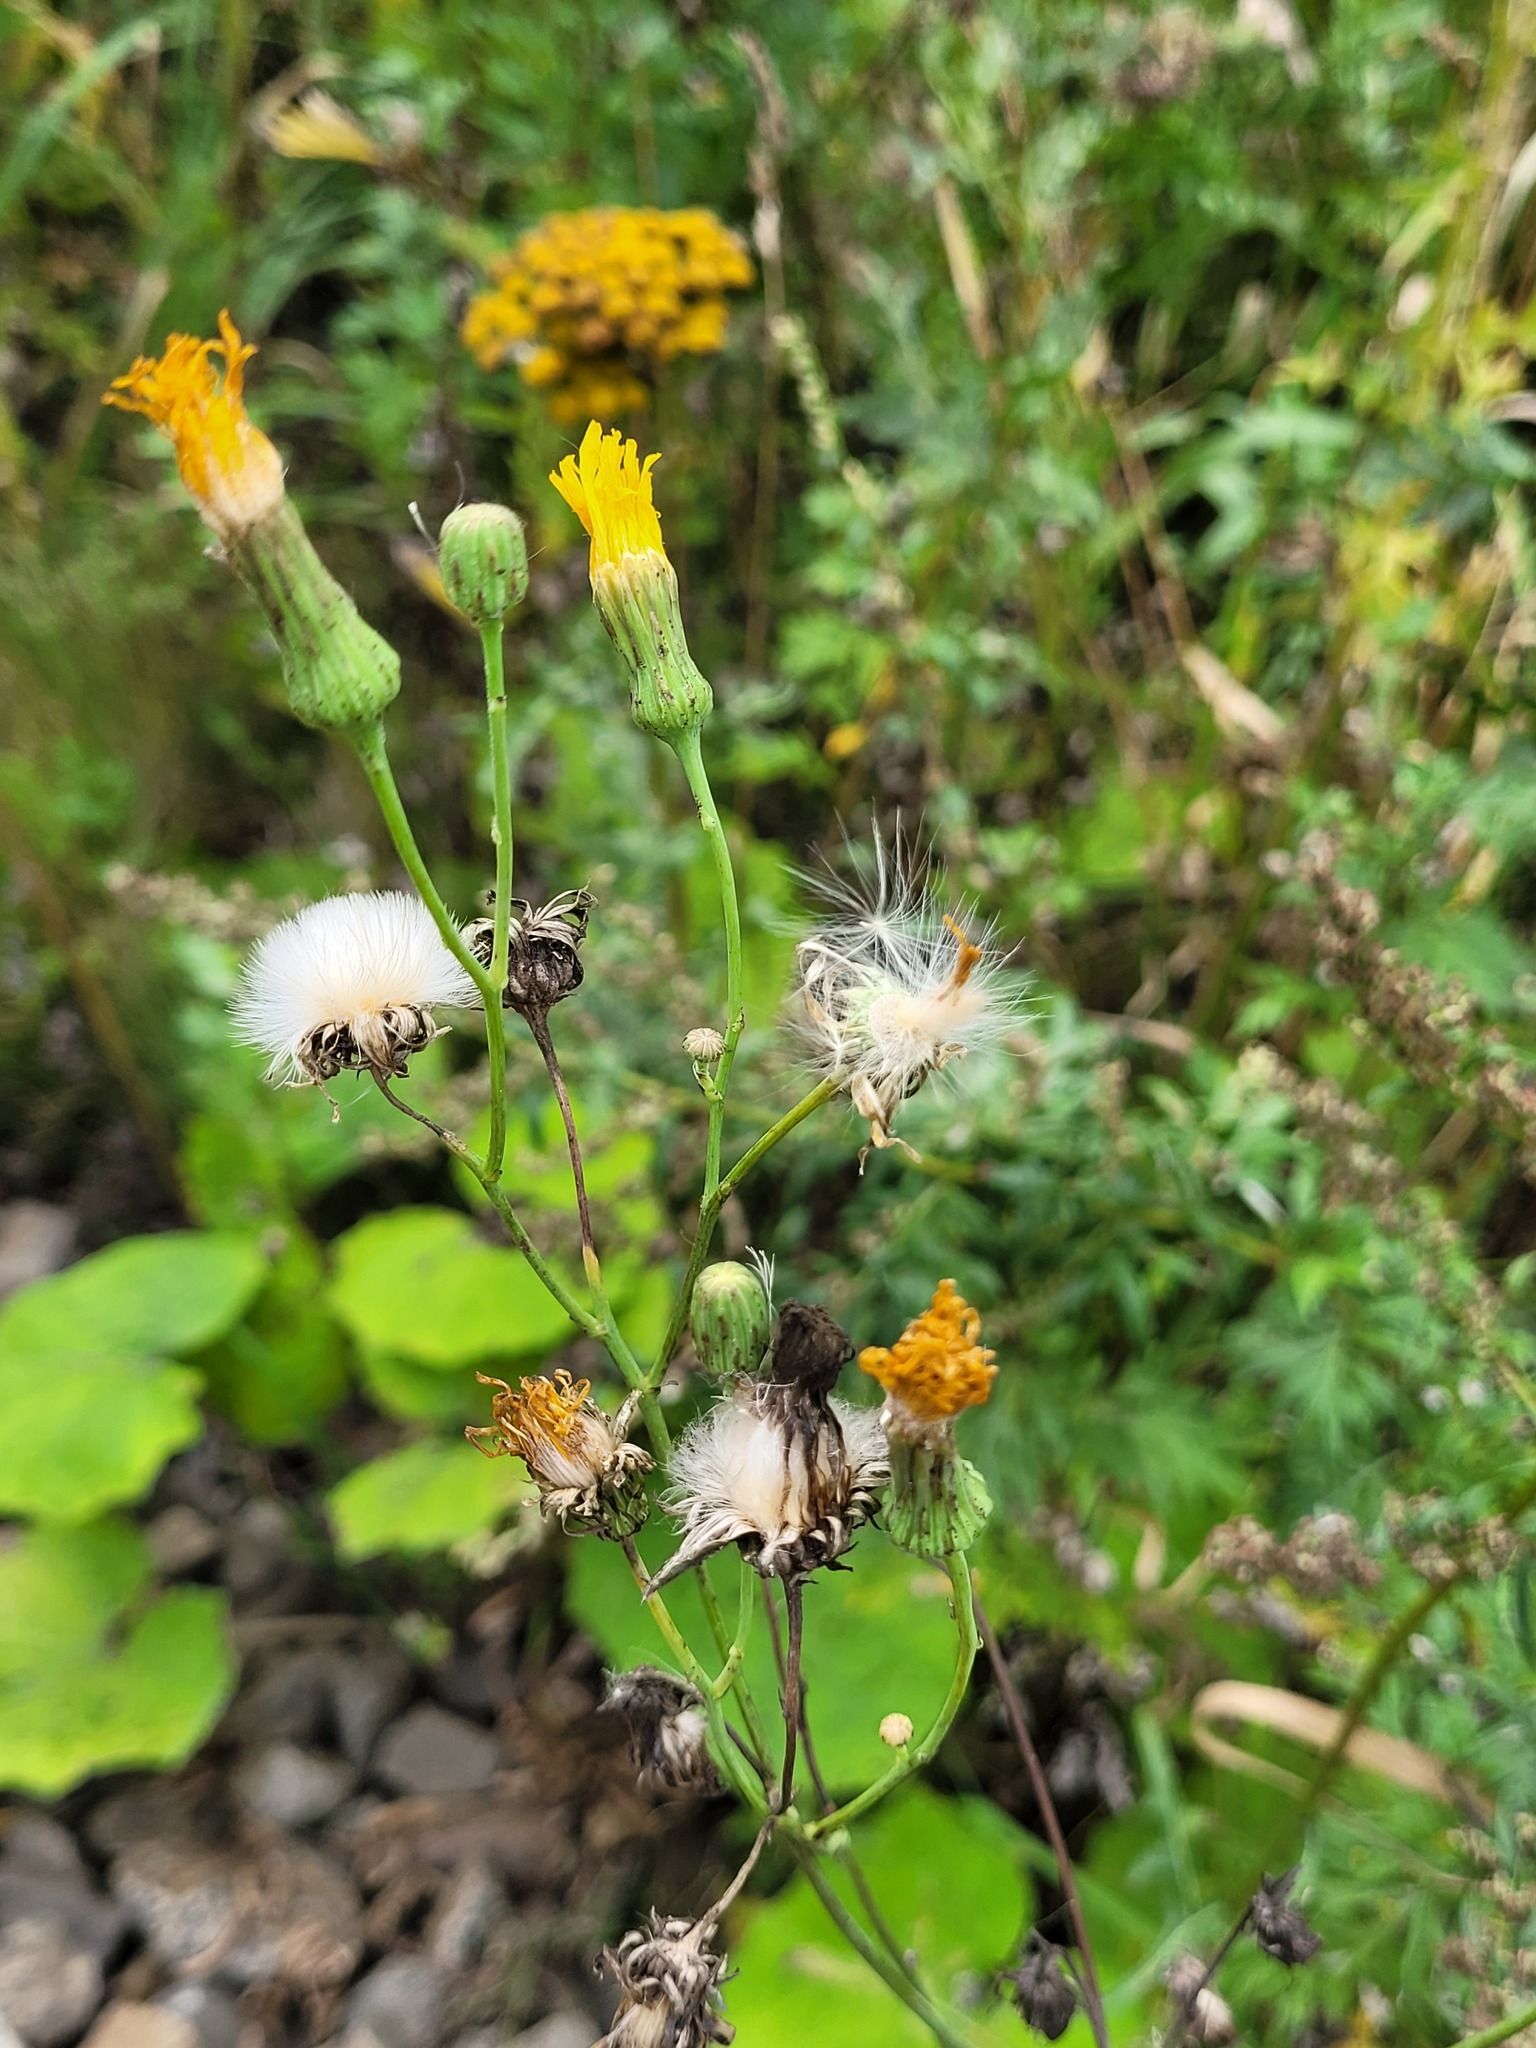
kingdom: Plantae
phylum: Tracheophyta
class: Magnoliopsida
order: Asterales
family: Asteraceae
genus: Sonchus
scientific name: Sonchus arvensis
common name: Perennial sow-thistle
